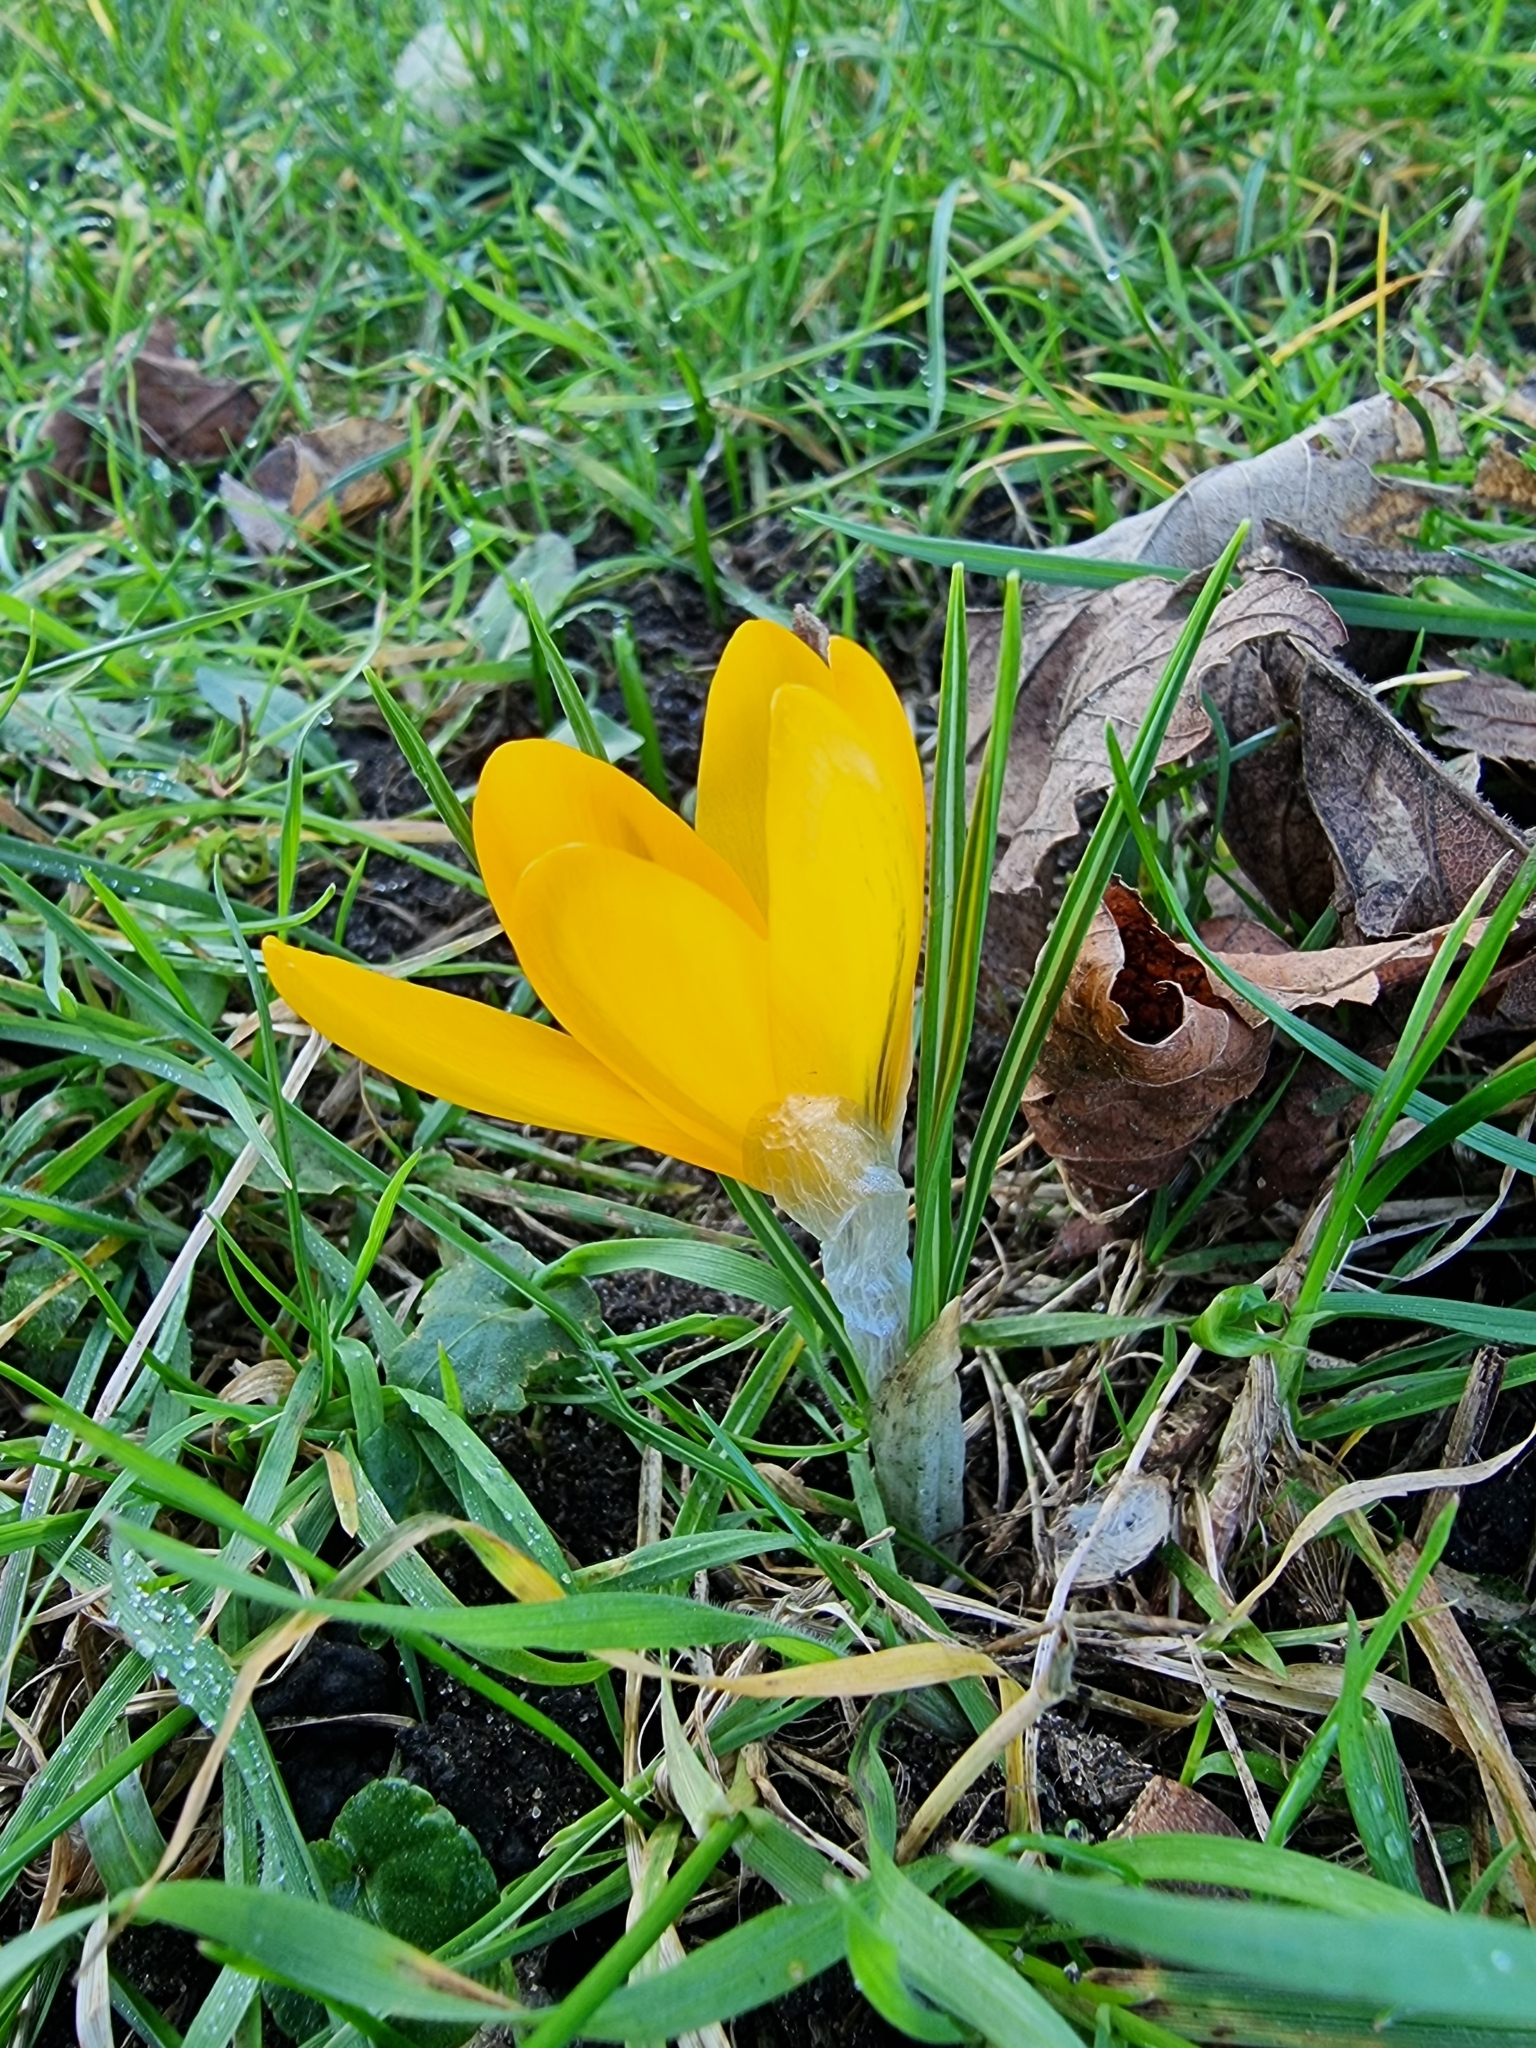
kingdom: Plantae
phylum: Tracheophyta
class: Liliopsida
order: Asparagales
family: Iridaceae
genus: Crocus
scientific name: Crocus luteus
